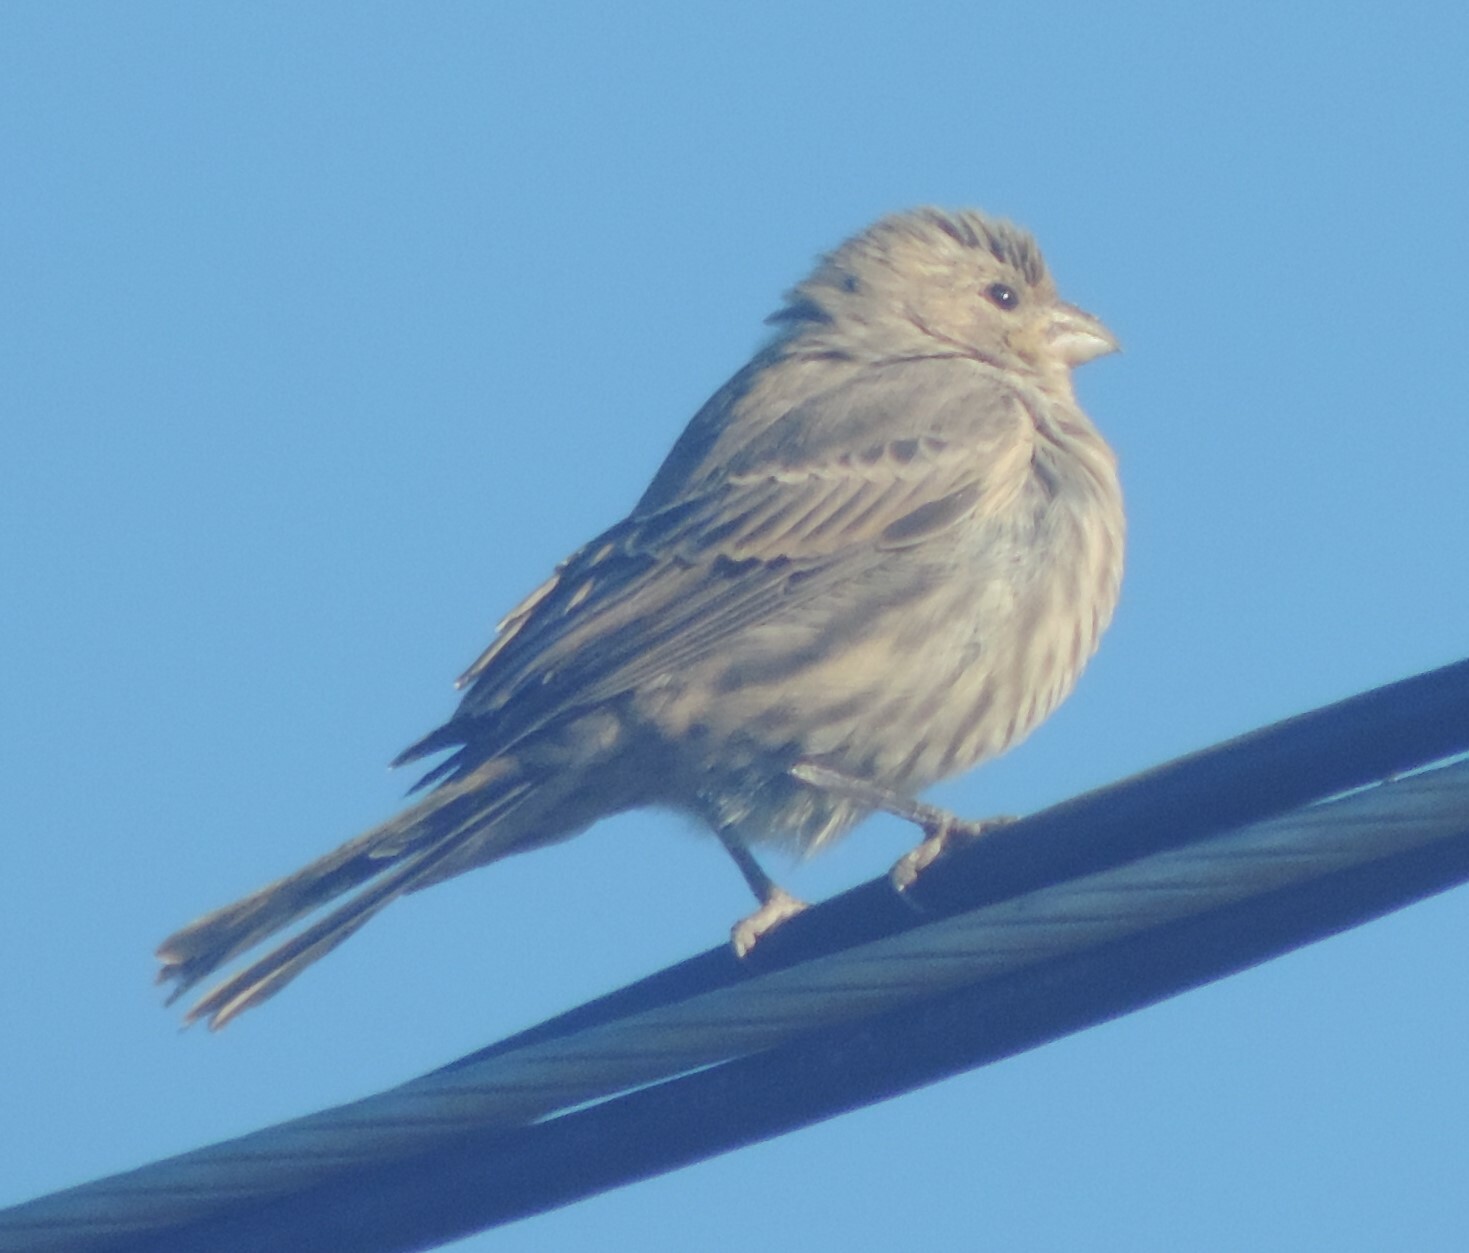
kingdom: Animalia
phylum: Chordata
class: Aves
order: Passeriformes
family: Fringillidae
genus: Haemorhous
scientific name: Haemorhous mexicanus
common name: House finch
